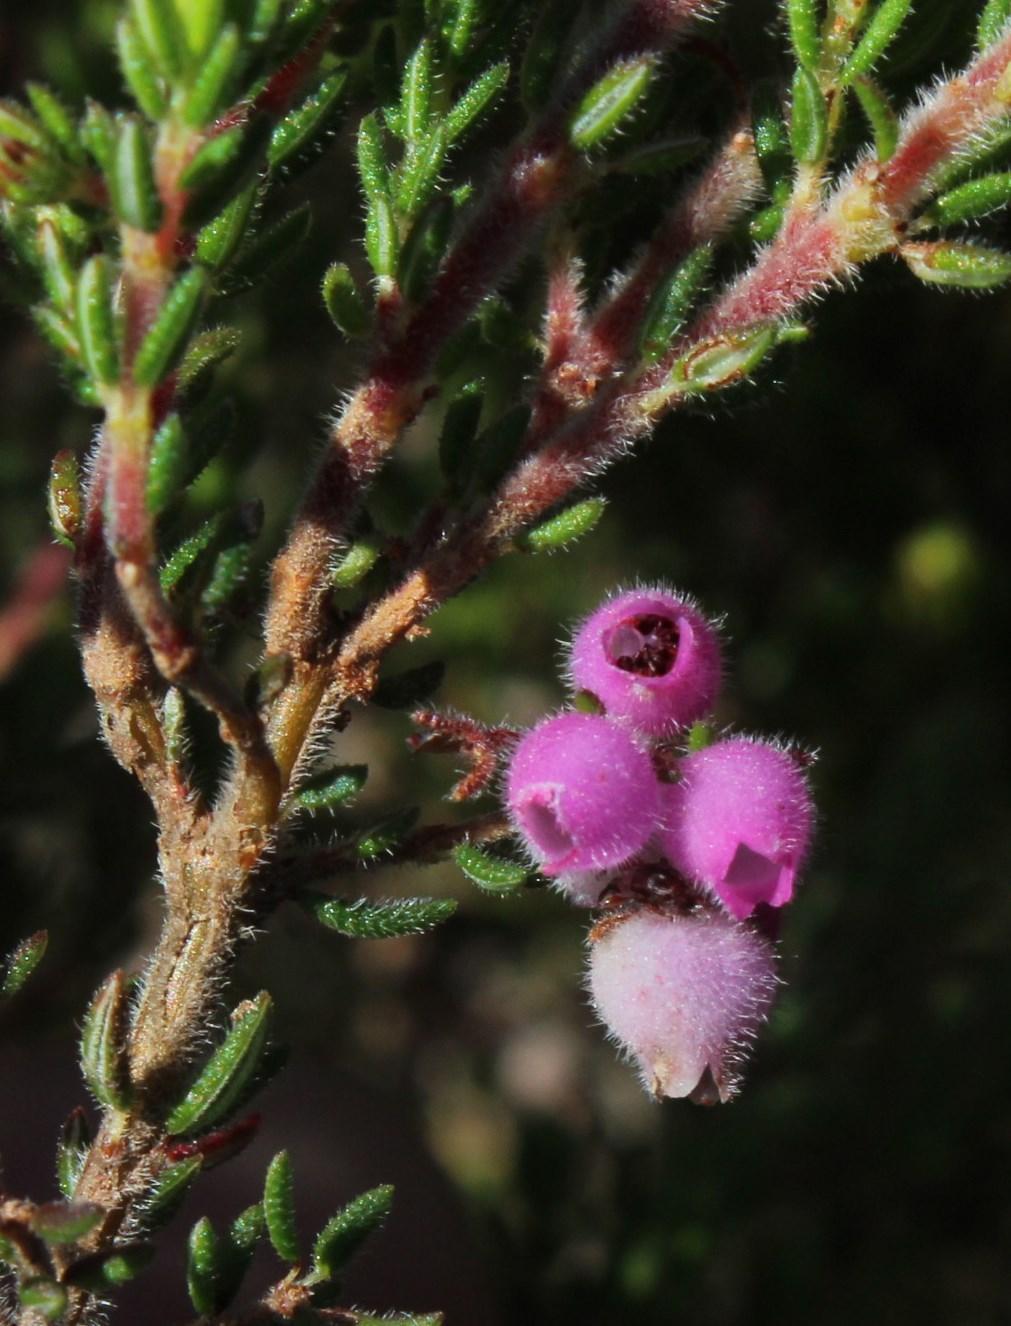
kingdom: Plantae
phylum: Tracheophyta
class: Magnoliopsida
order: Ericales
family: Ericaceae
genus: Erica
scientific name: Erica hirtiflora
